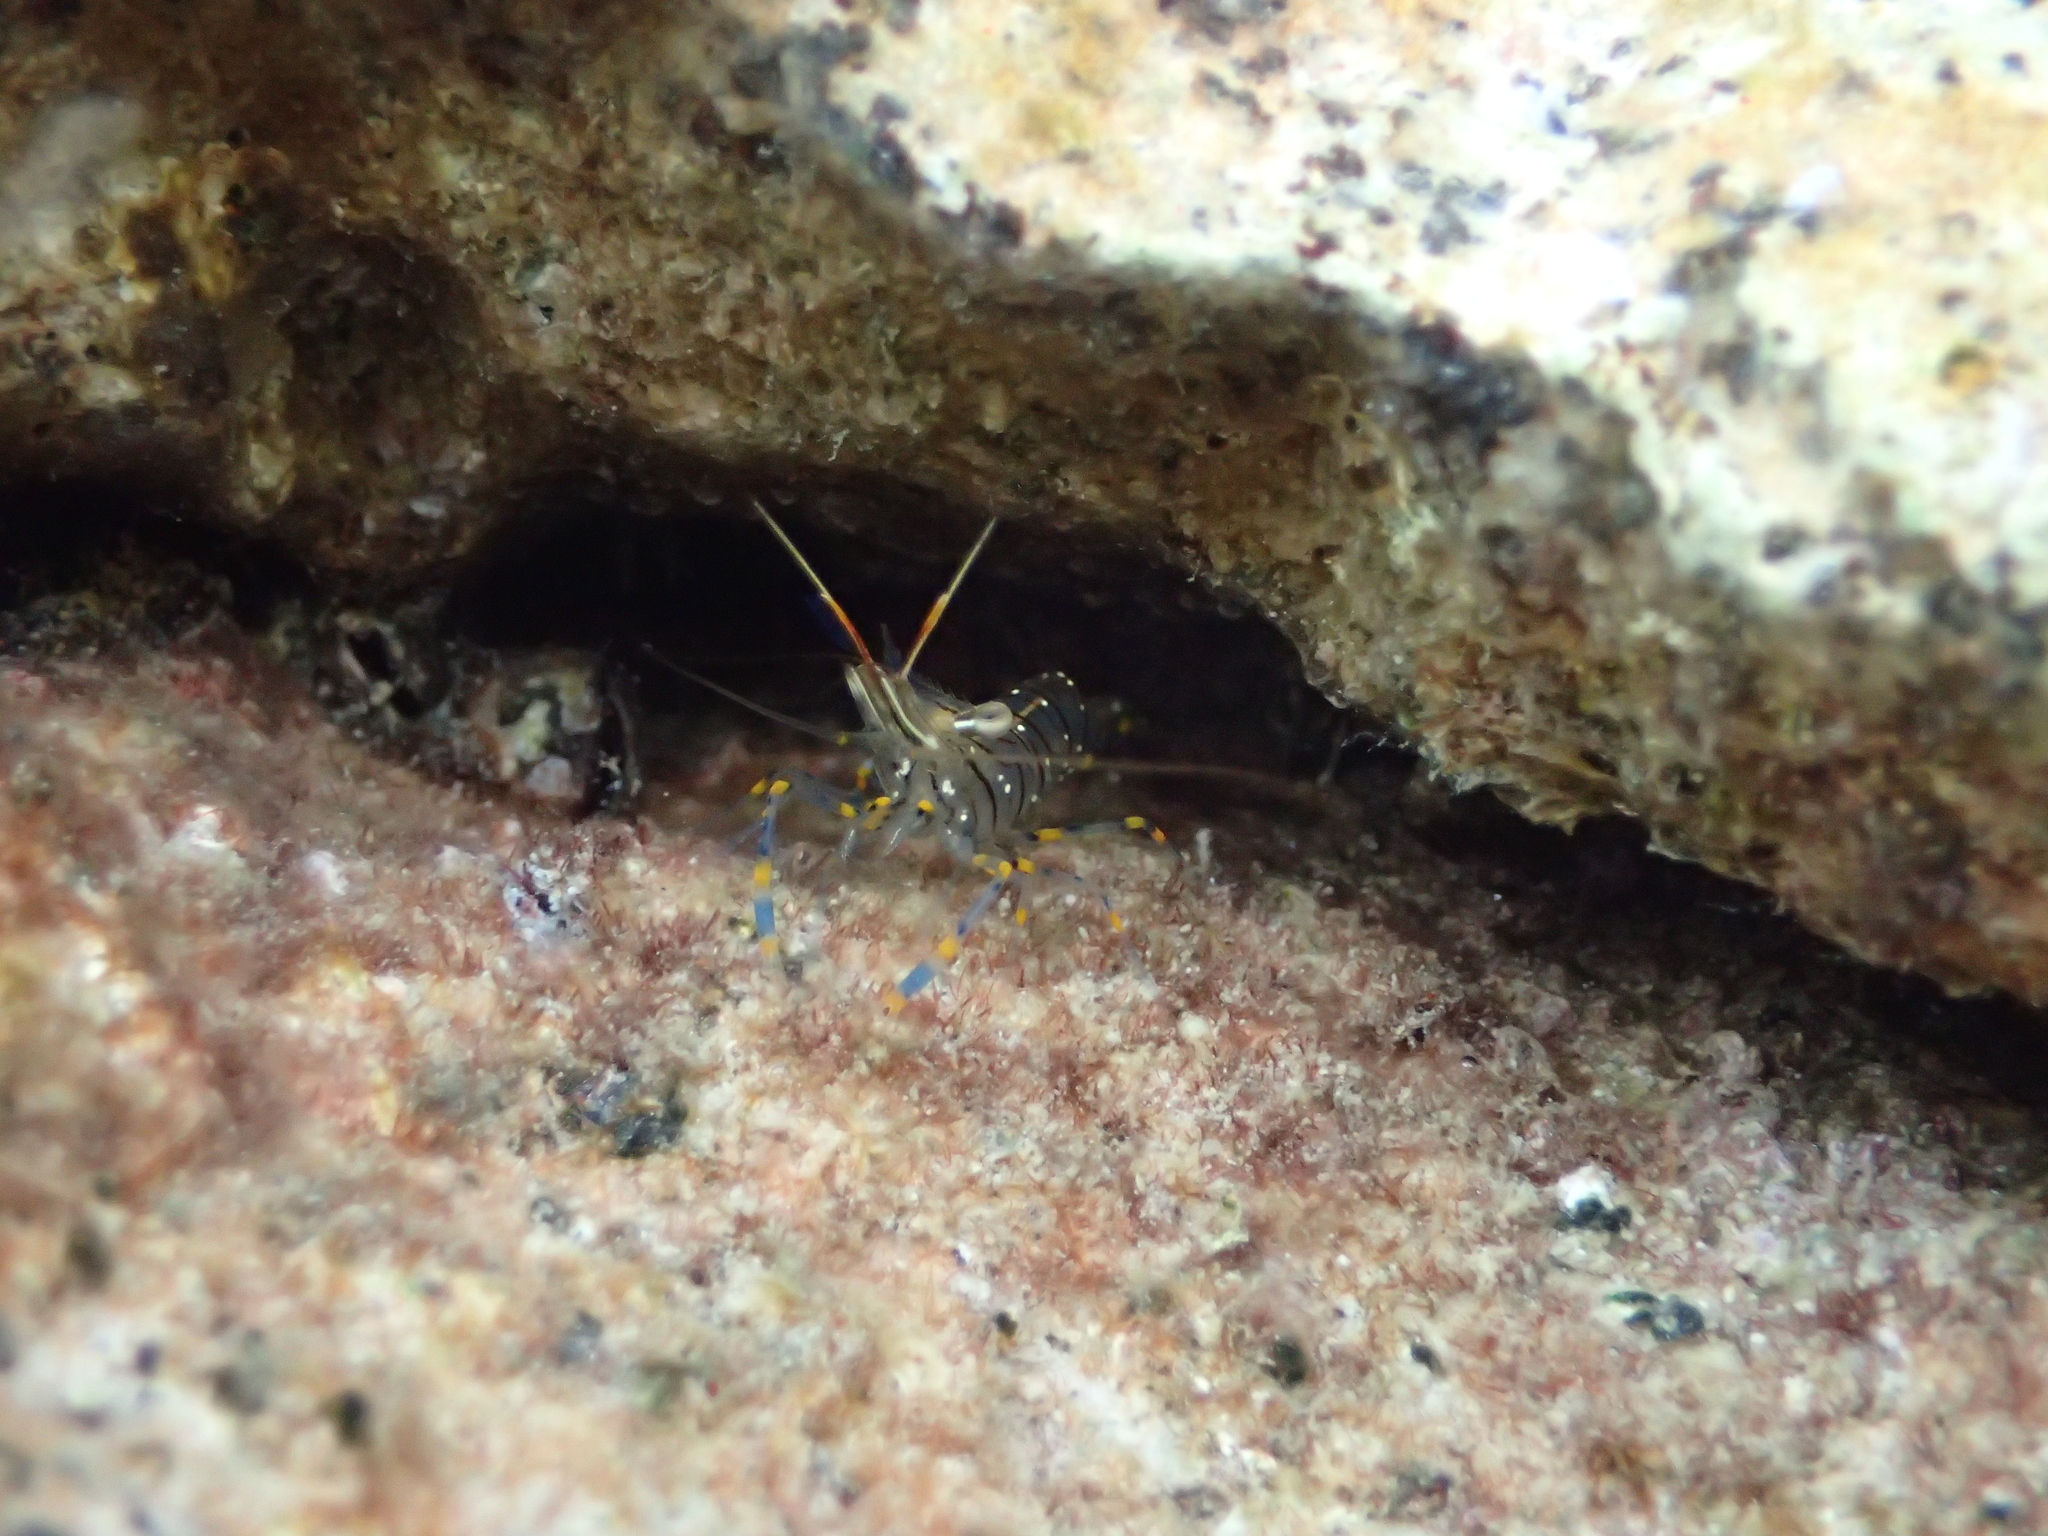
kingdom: Animalia
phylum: Arthropoda
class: Malacostraca
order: Decapoda
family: Palaemonidae
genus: Palaemon
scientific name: Palaemon elegans
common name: Grass prawm
